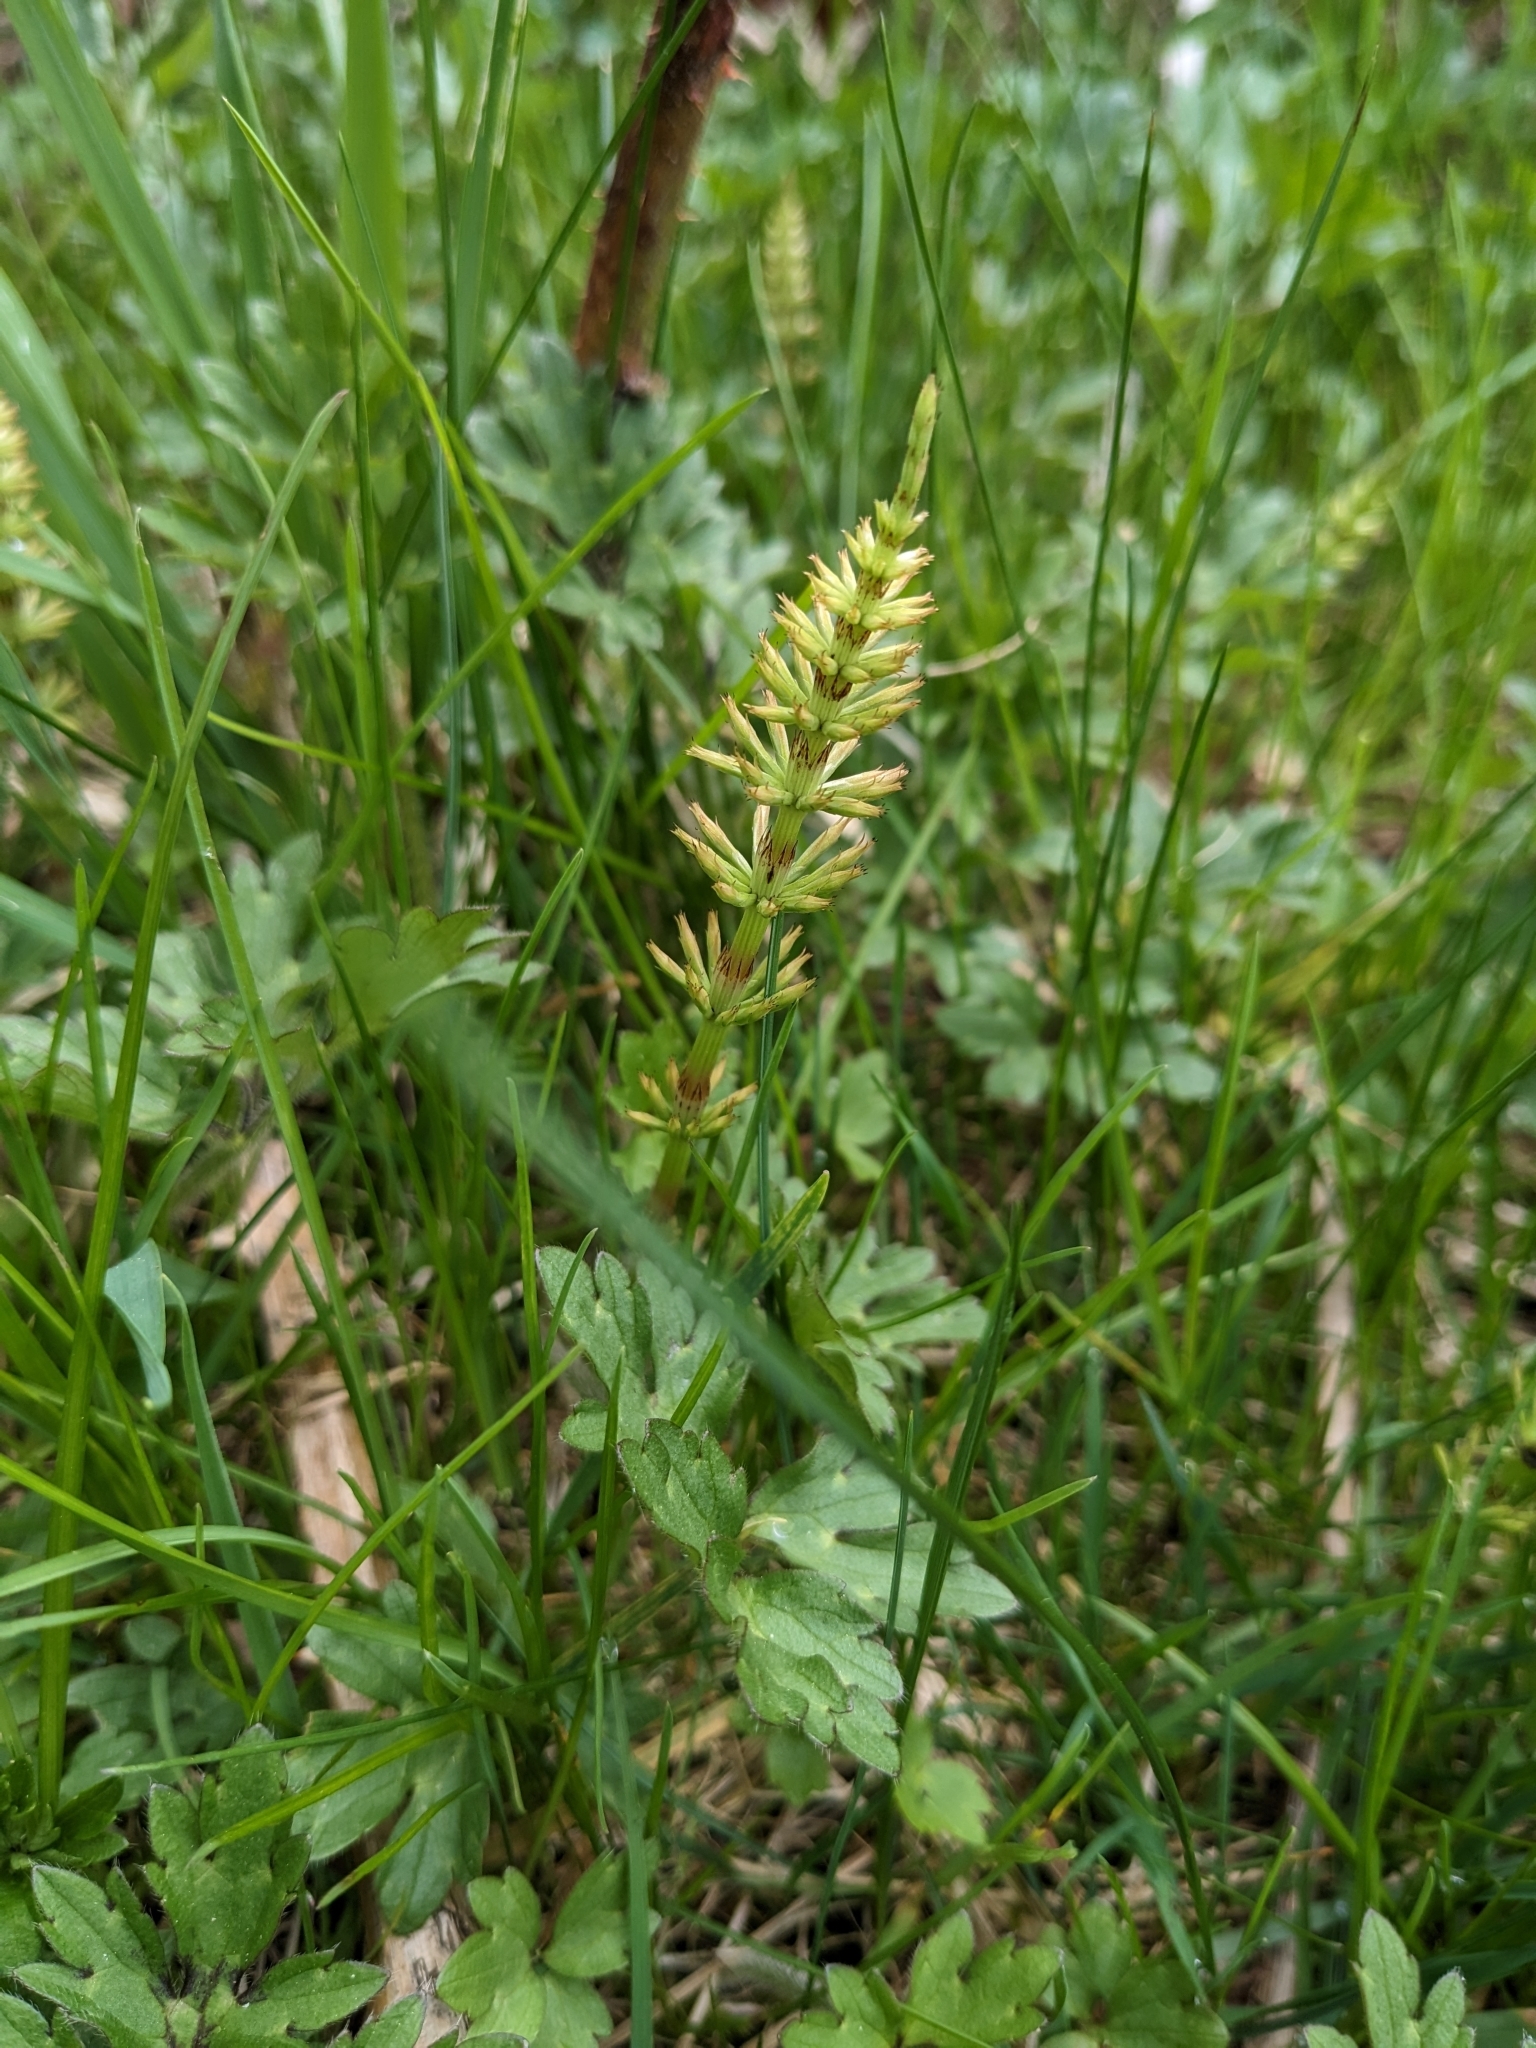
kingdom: Plantae
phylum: Tracheophyta
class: Polypodiopsida
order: Equisetales
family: Equisetaceae
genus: Equisetum
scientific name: Equisetum arvense
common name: Field horsetail
